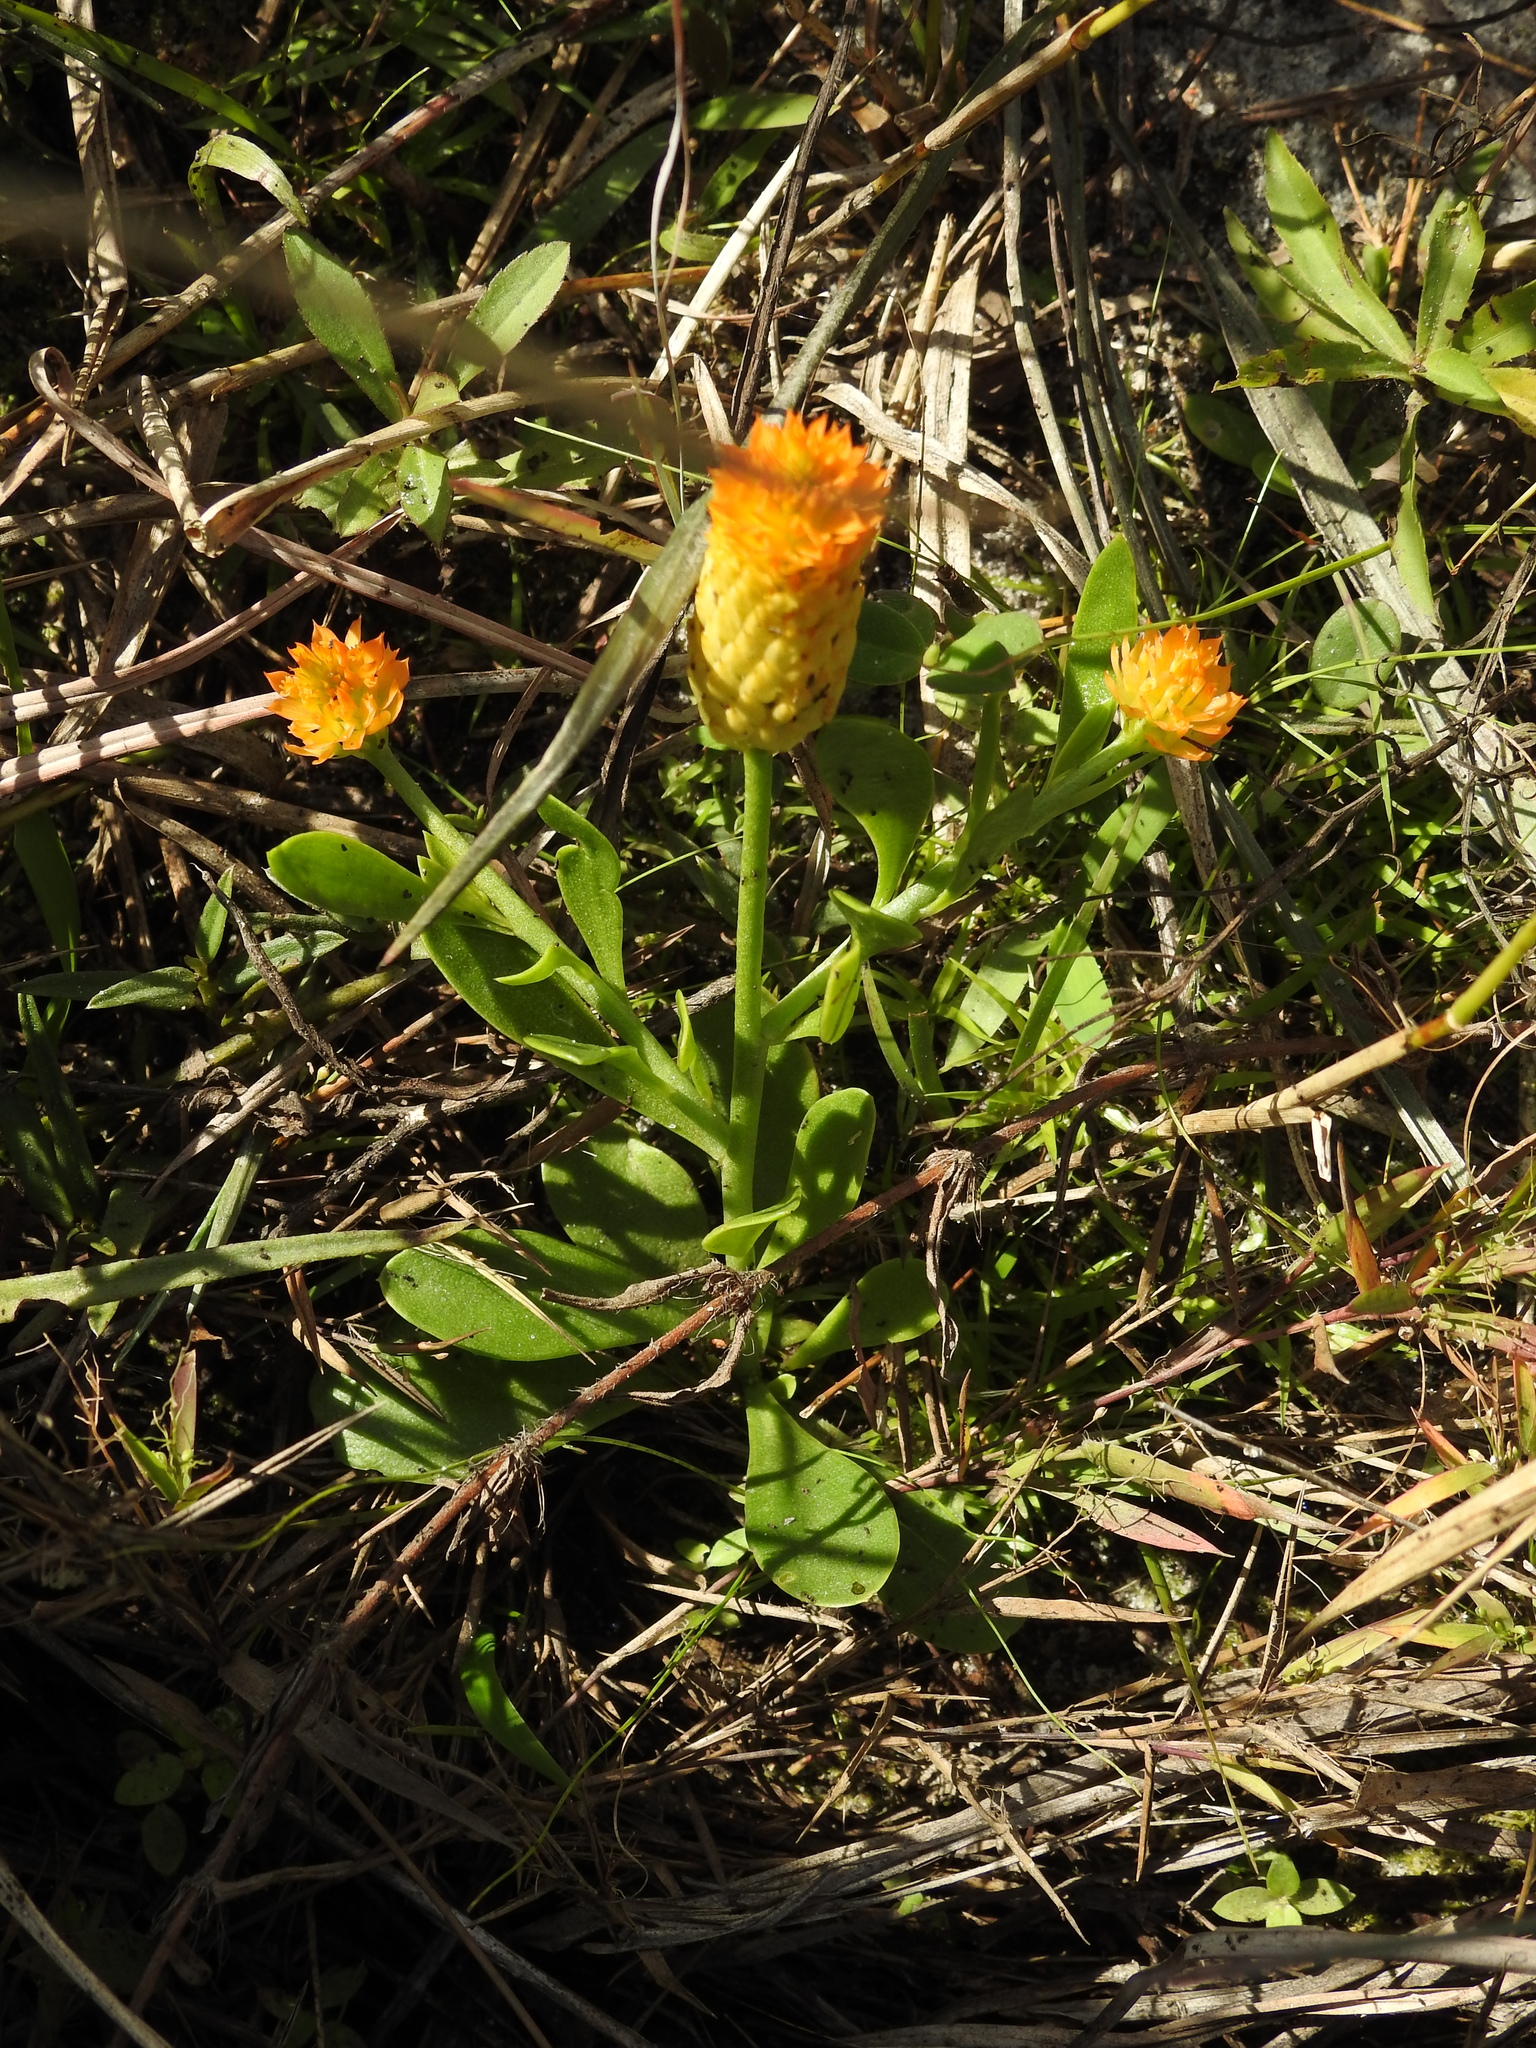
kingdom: Plantae
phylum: Tracheophyta
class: Magnoliopsida
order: Fabales
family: Polygalaceae
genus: Polygala
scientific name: Polygala lutea
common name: Orange milkwort
